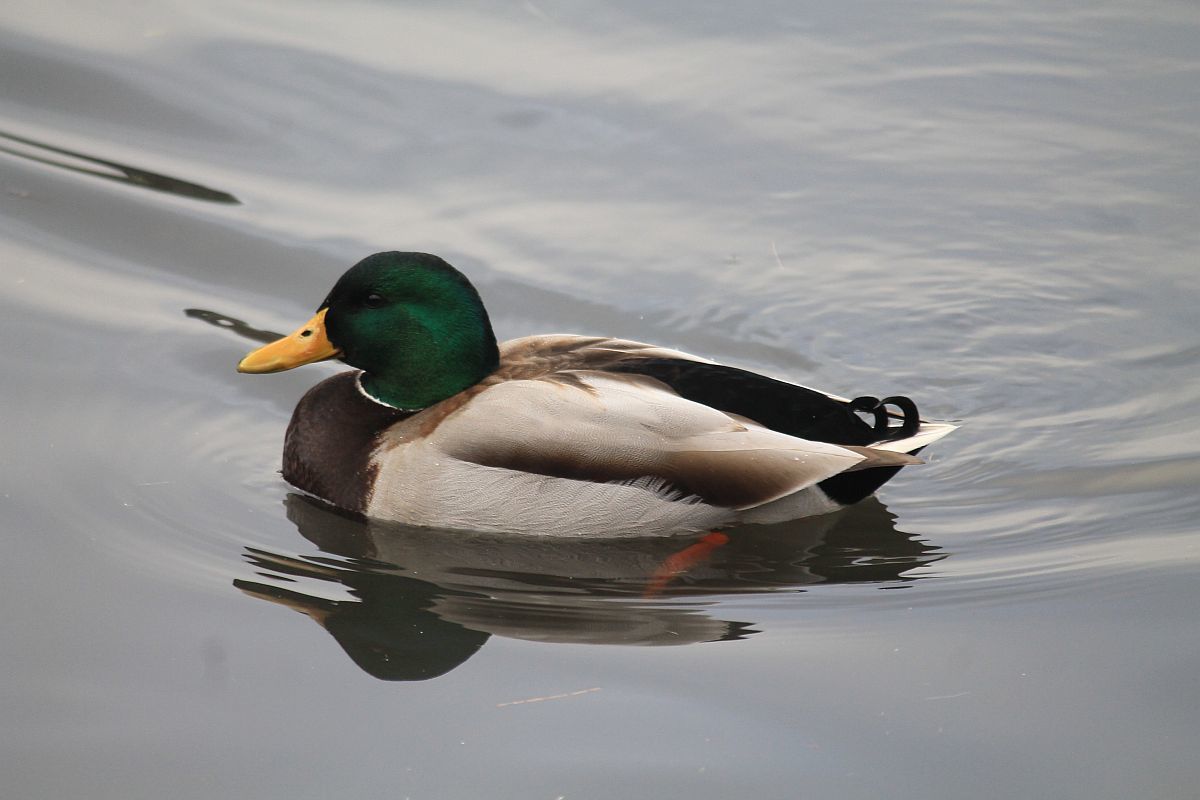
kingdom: Animalia
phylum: Chordata
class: Aves
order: Anseriformes
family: Anatidae
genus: Anas
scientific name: Anas platyrhynchos
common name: Mallard
